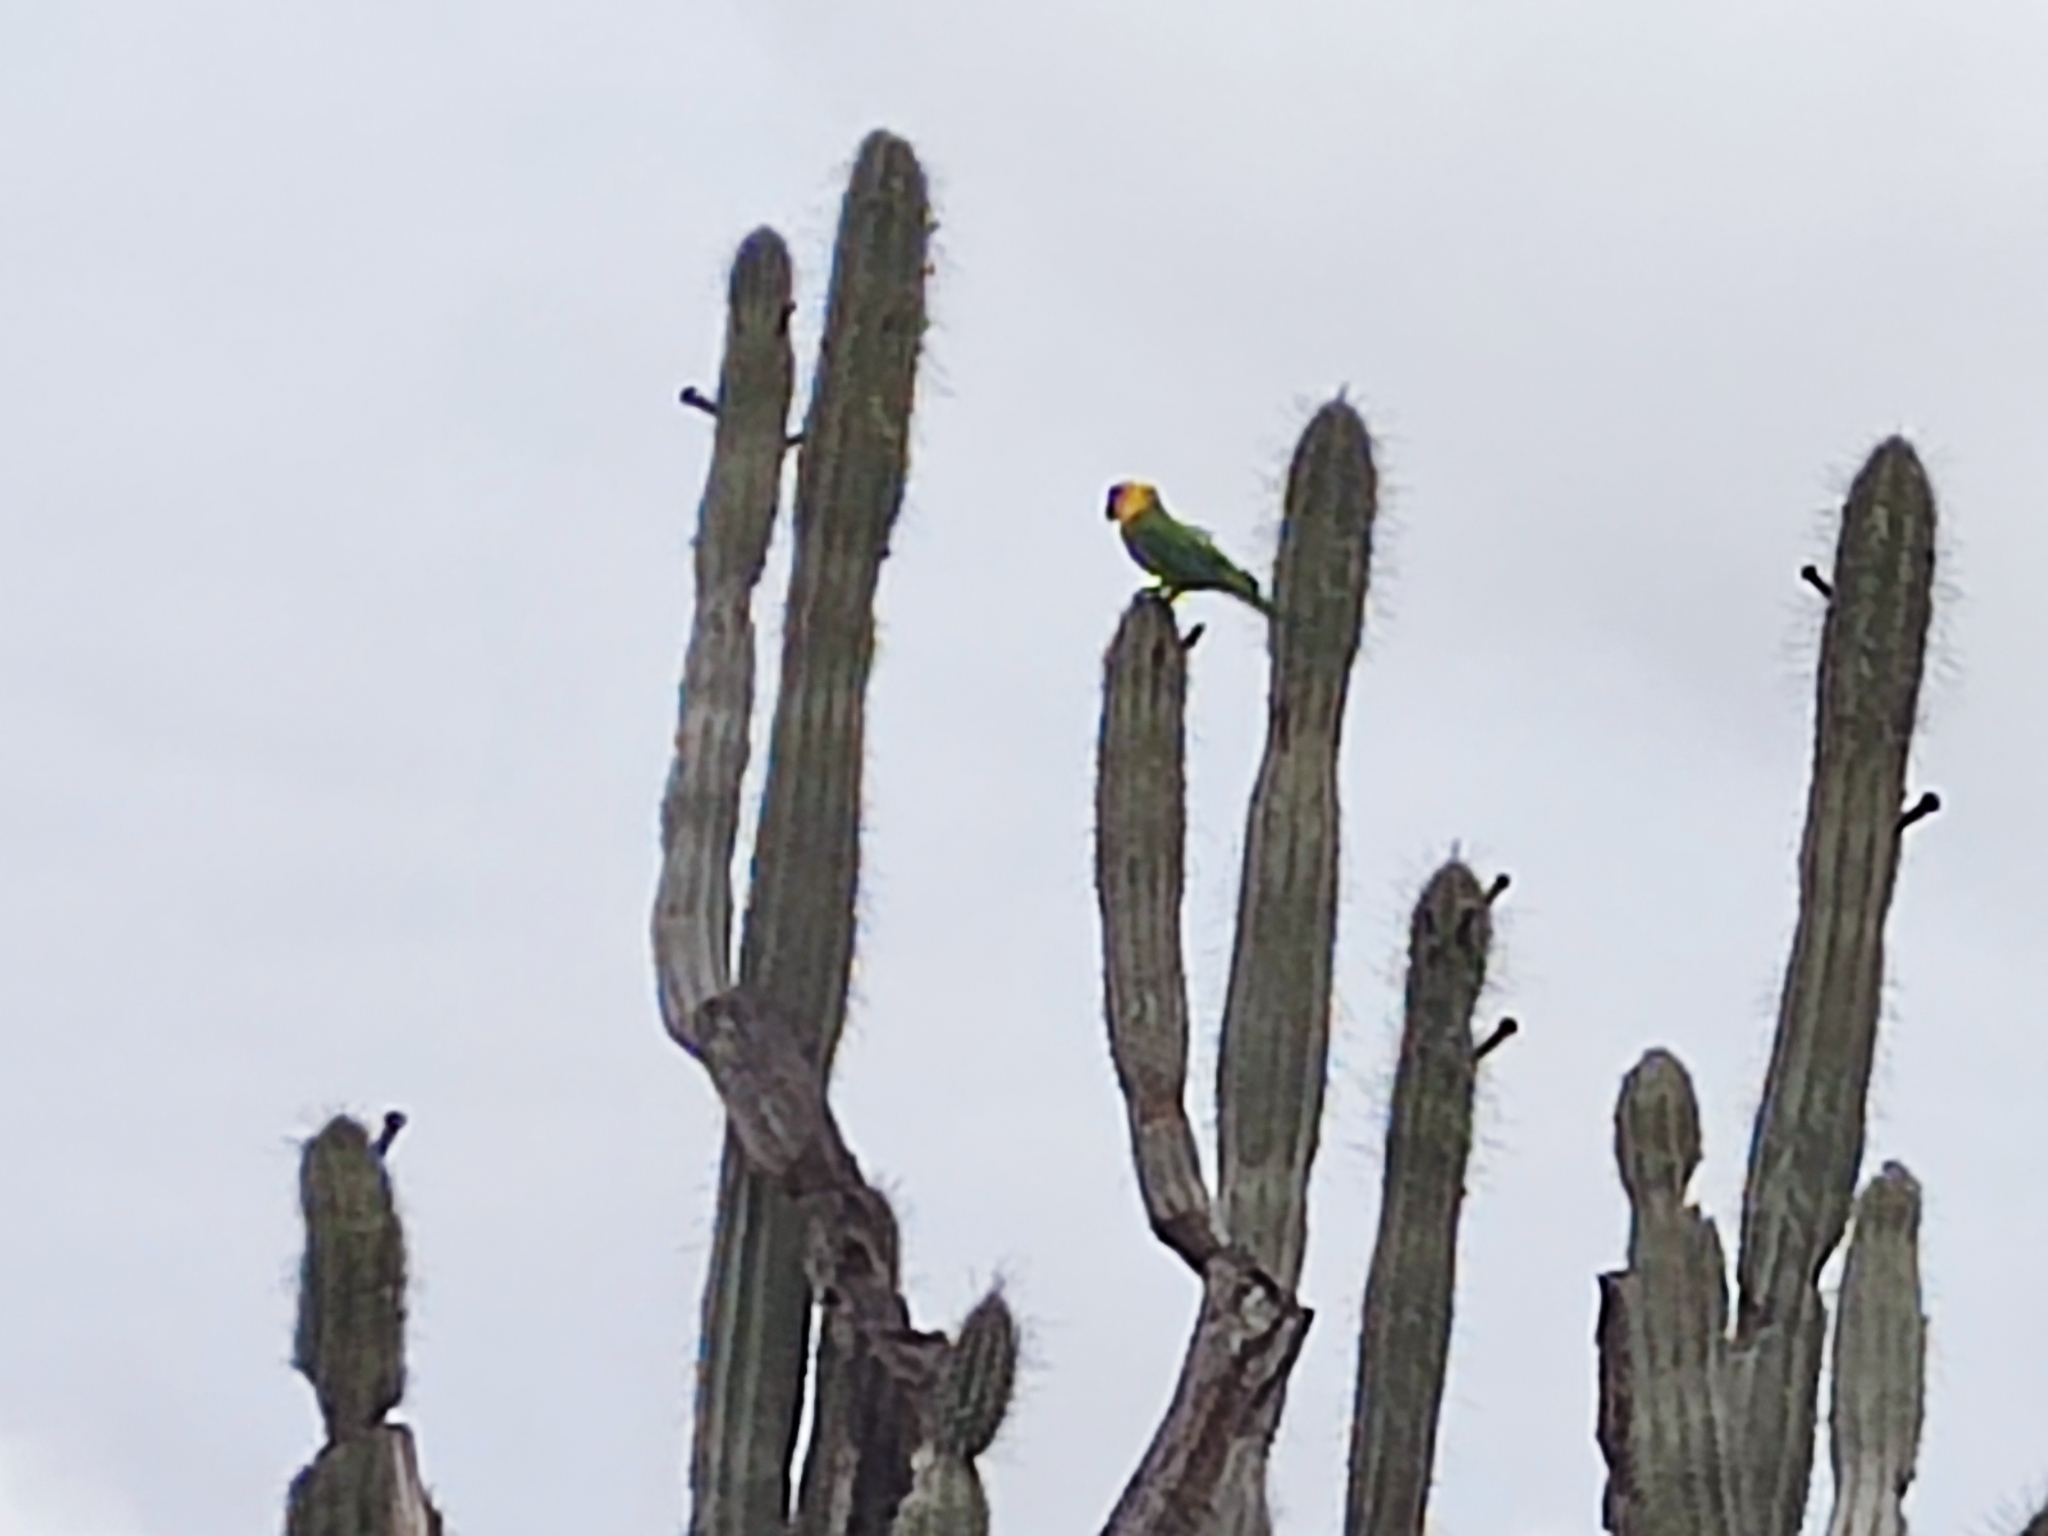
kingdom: Animalia
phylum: Chordata
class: Aves
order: Psittaciformes
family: Psittacidae
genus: Aratinga
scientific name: Aratinga pertinax
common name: Brown-throated parakeet
